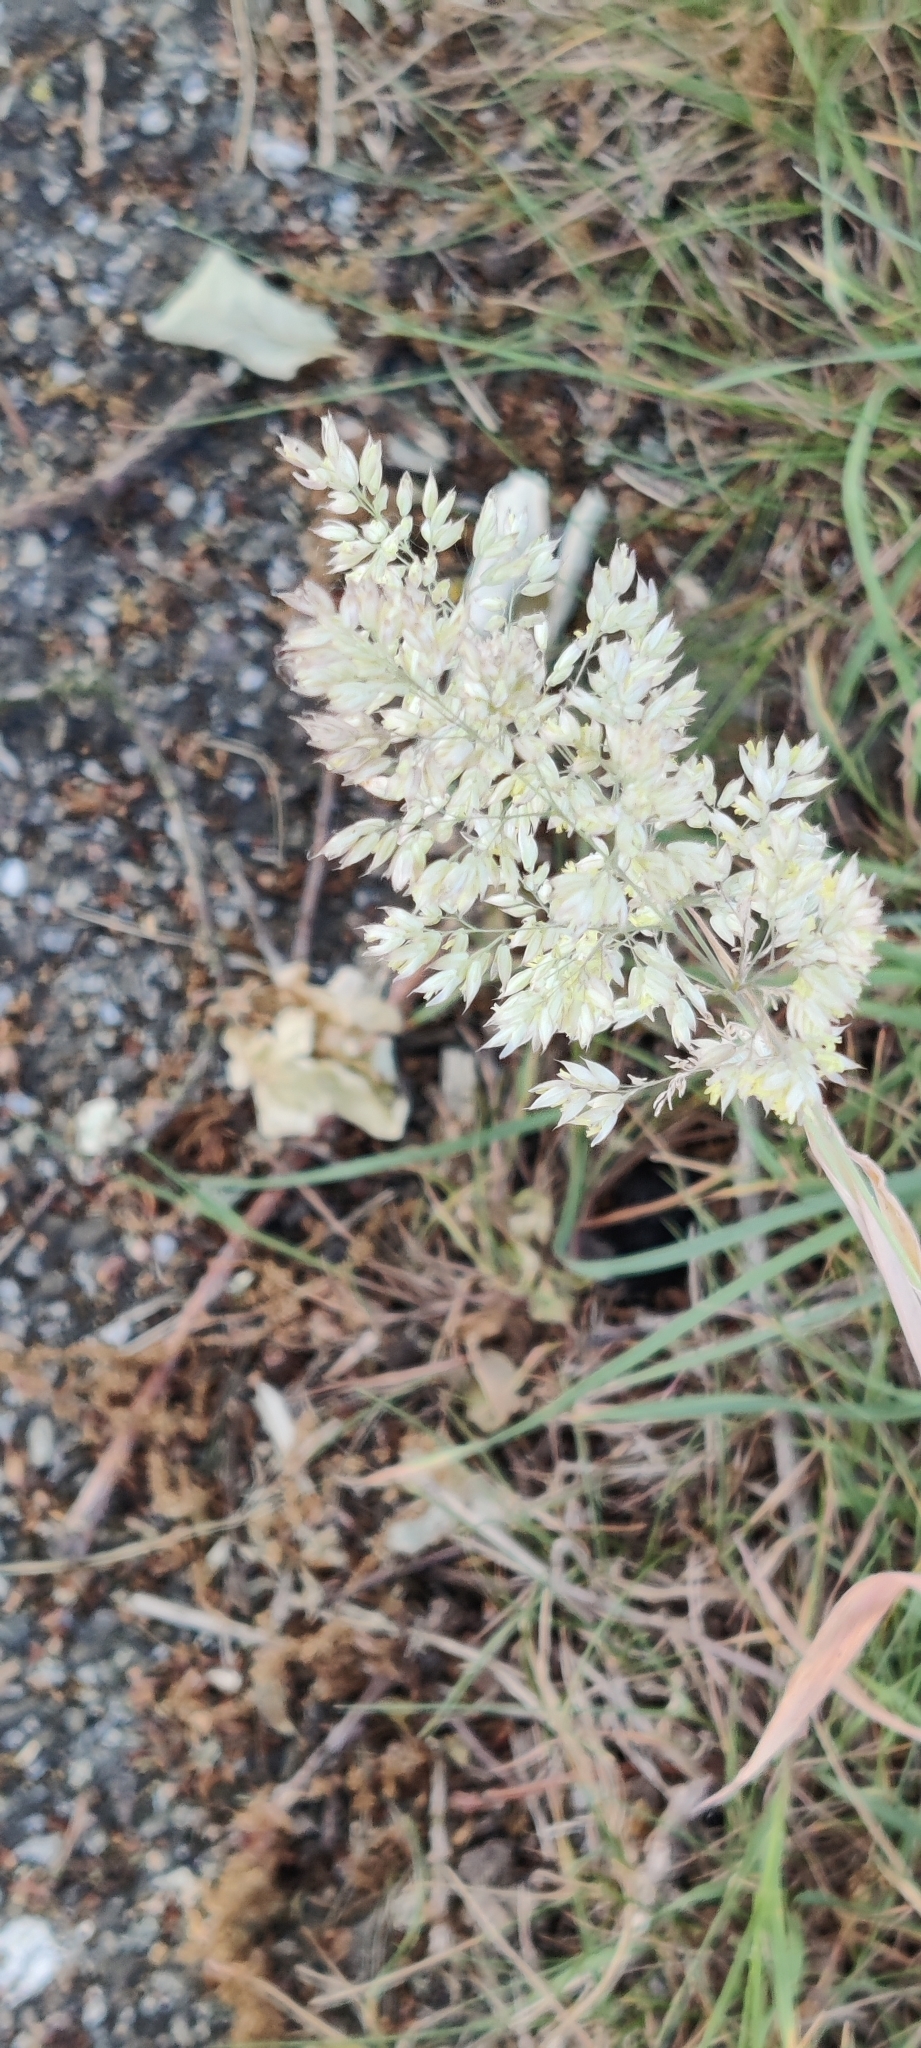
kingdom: Plantae
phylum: Tracheophyta
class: Liliopsida
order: Poales
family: Poaceae
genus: Holcus
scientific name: Holcus lanatus
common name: Yorkshire-fog
